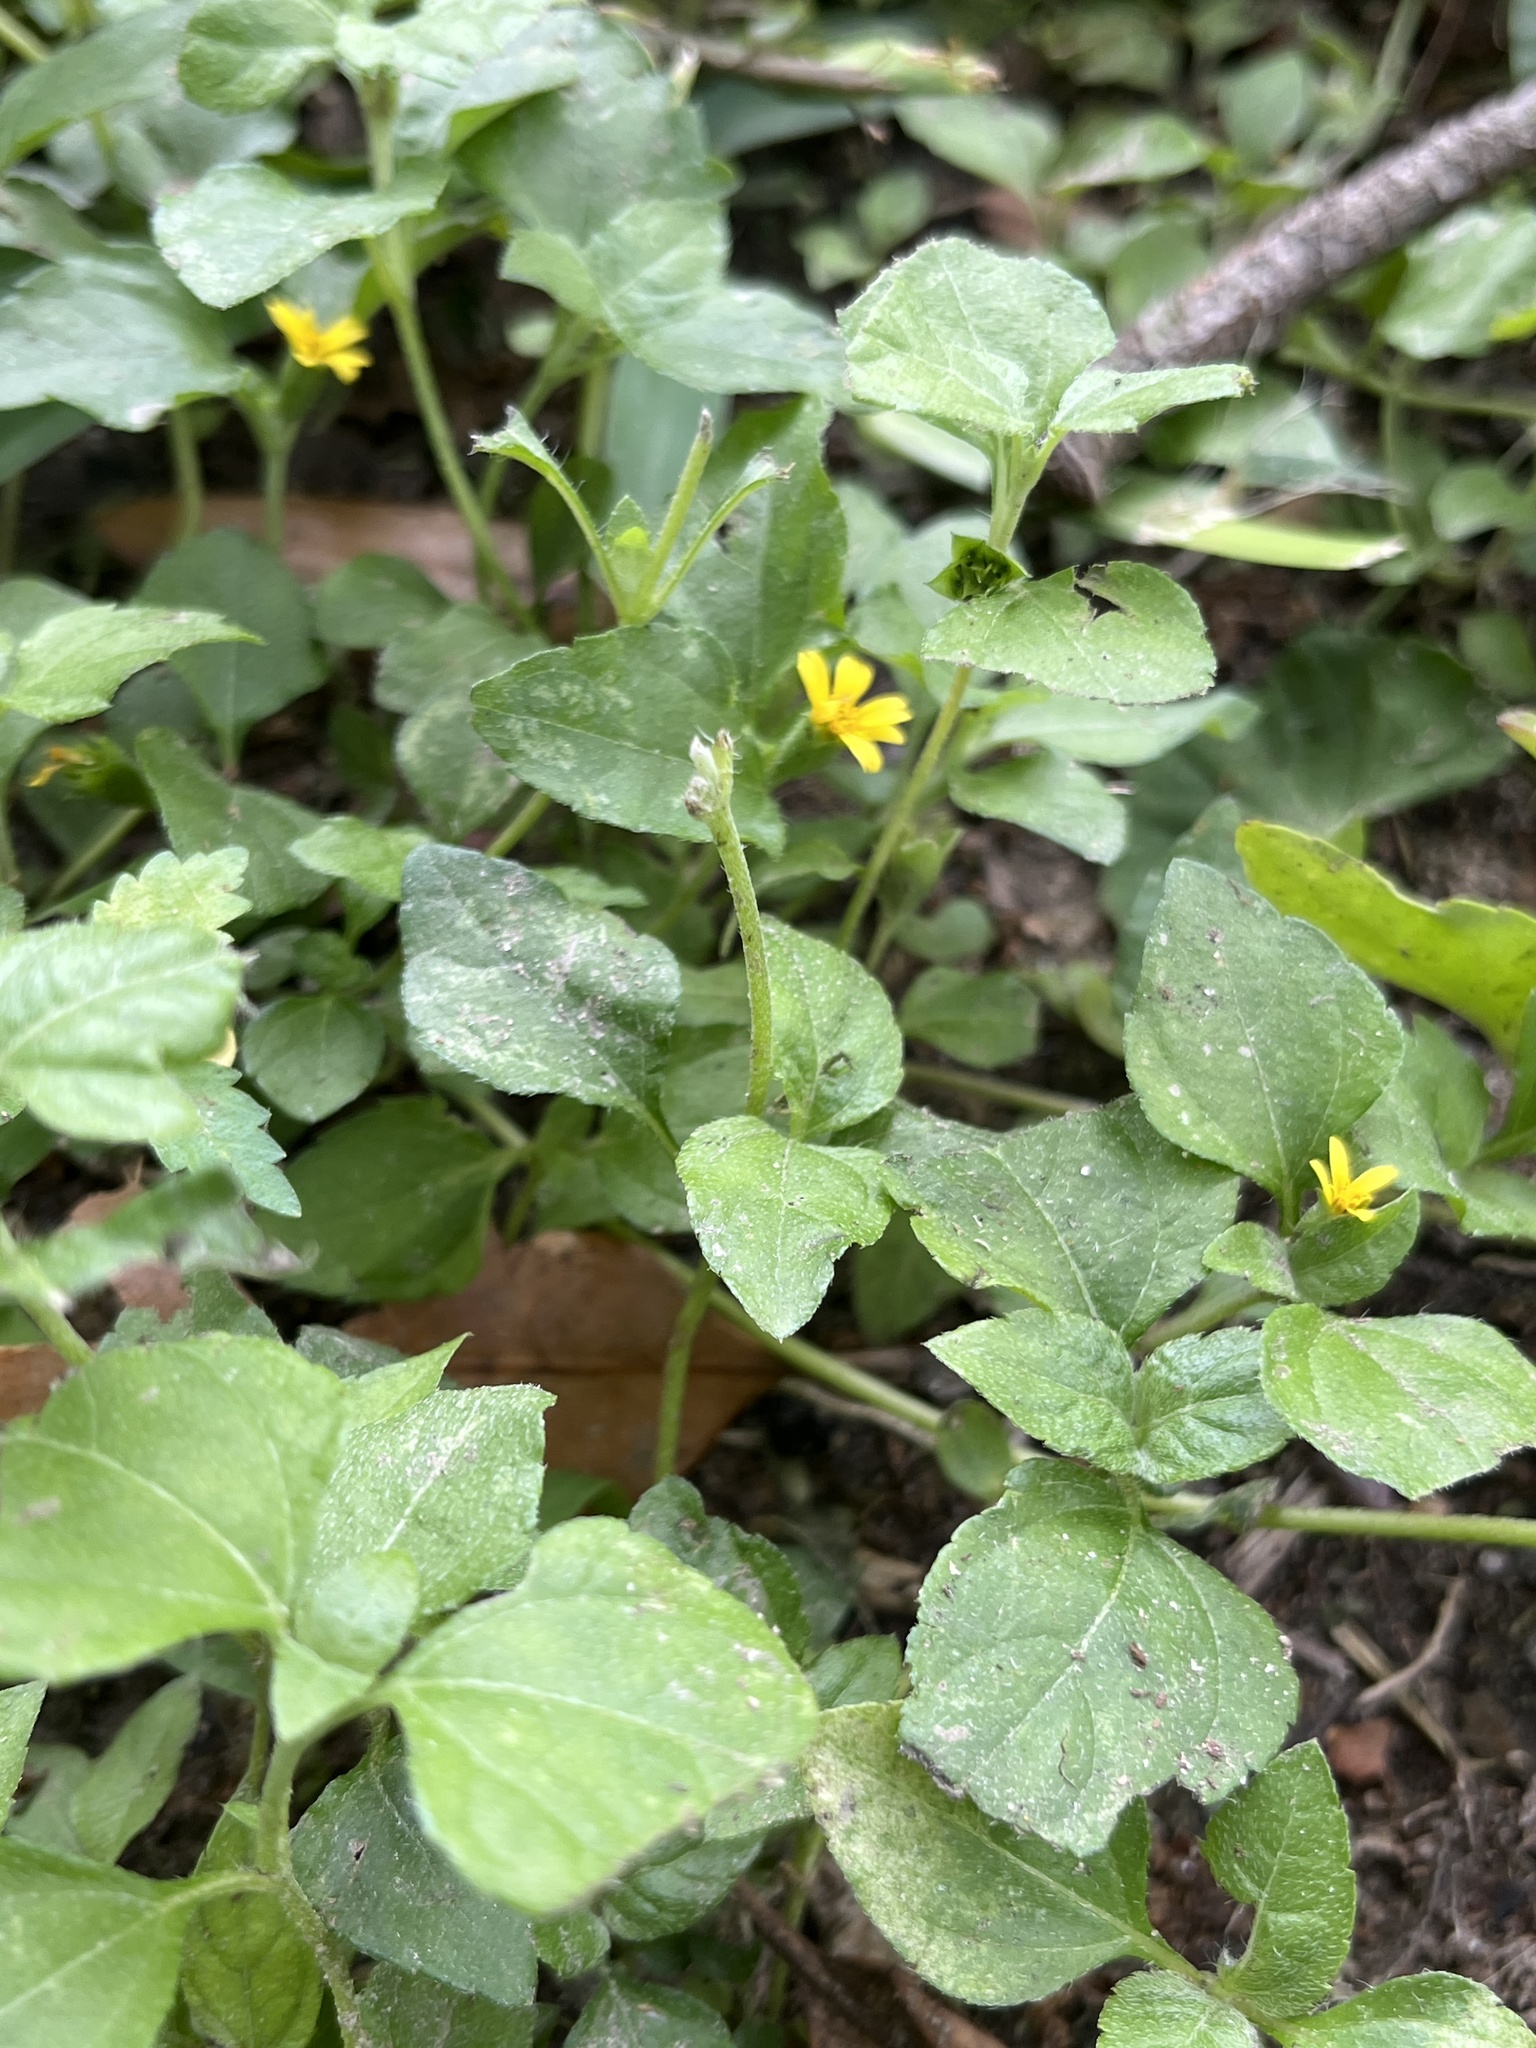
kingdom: Plantae
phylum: Tracheophyta
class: Magnoliopsida
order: Asterales
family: Asteraceae
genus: Calyptocarpus
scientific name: Calyptocarpus vialis
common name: Straggler daisy
